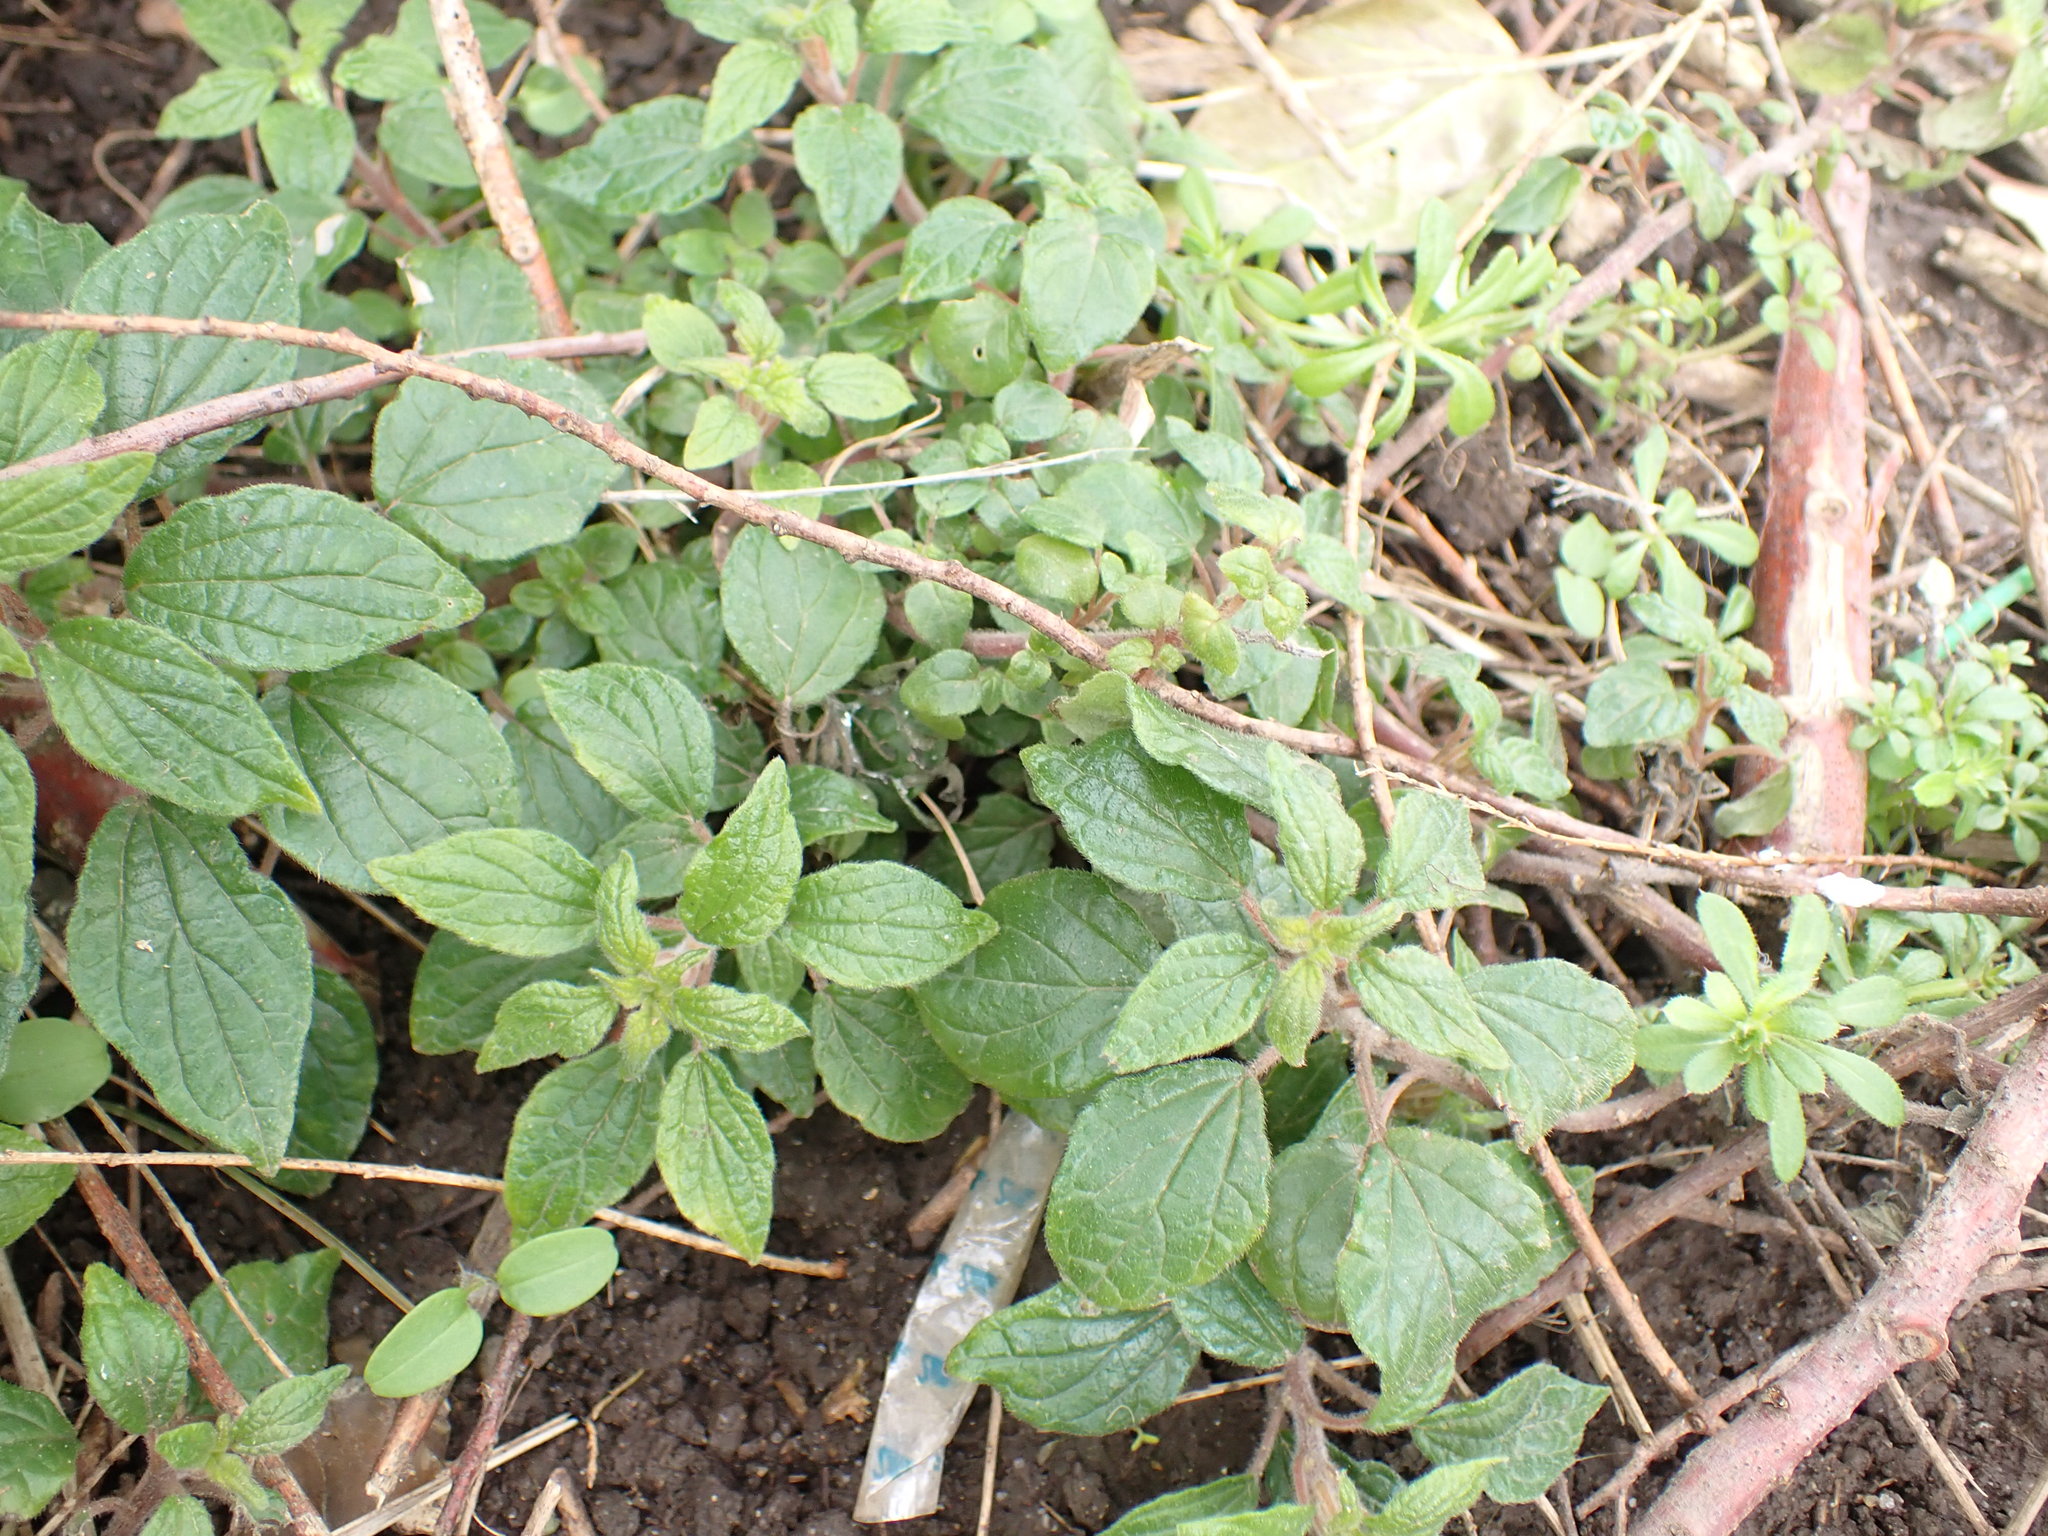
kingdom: Plantae
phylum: Tracheophyta
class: Magnoliopsida
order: Rosales
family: Urticaceae
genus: Parietaria
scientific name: Parietaria judaica
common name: Pellitory-of-the-wall
